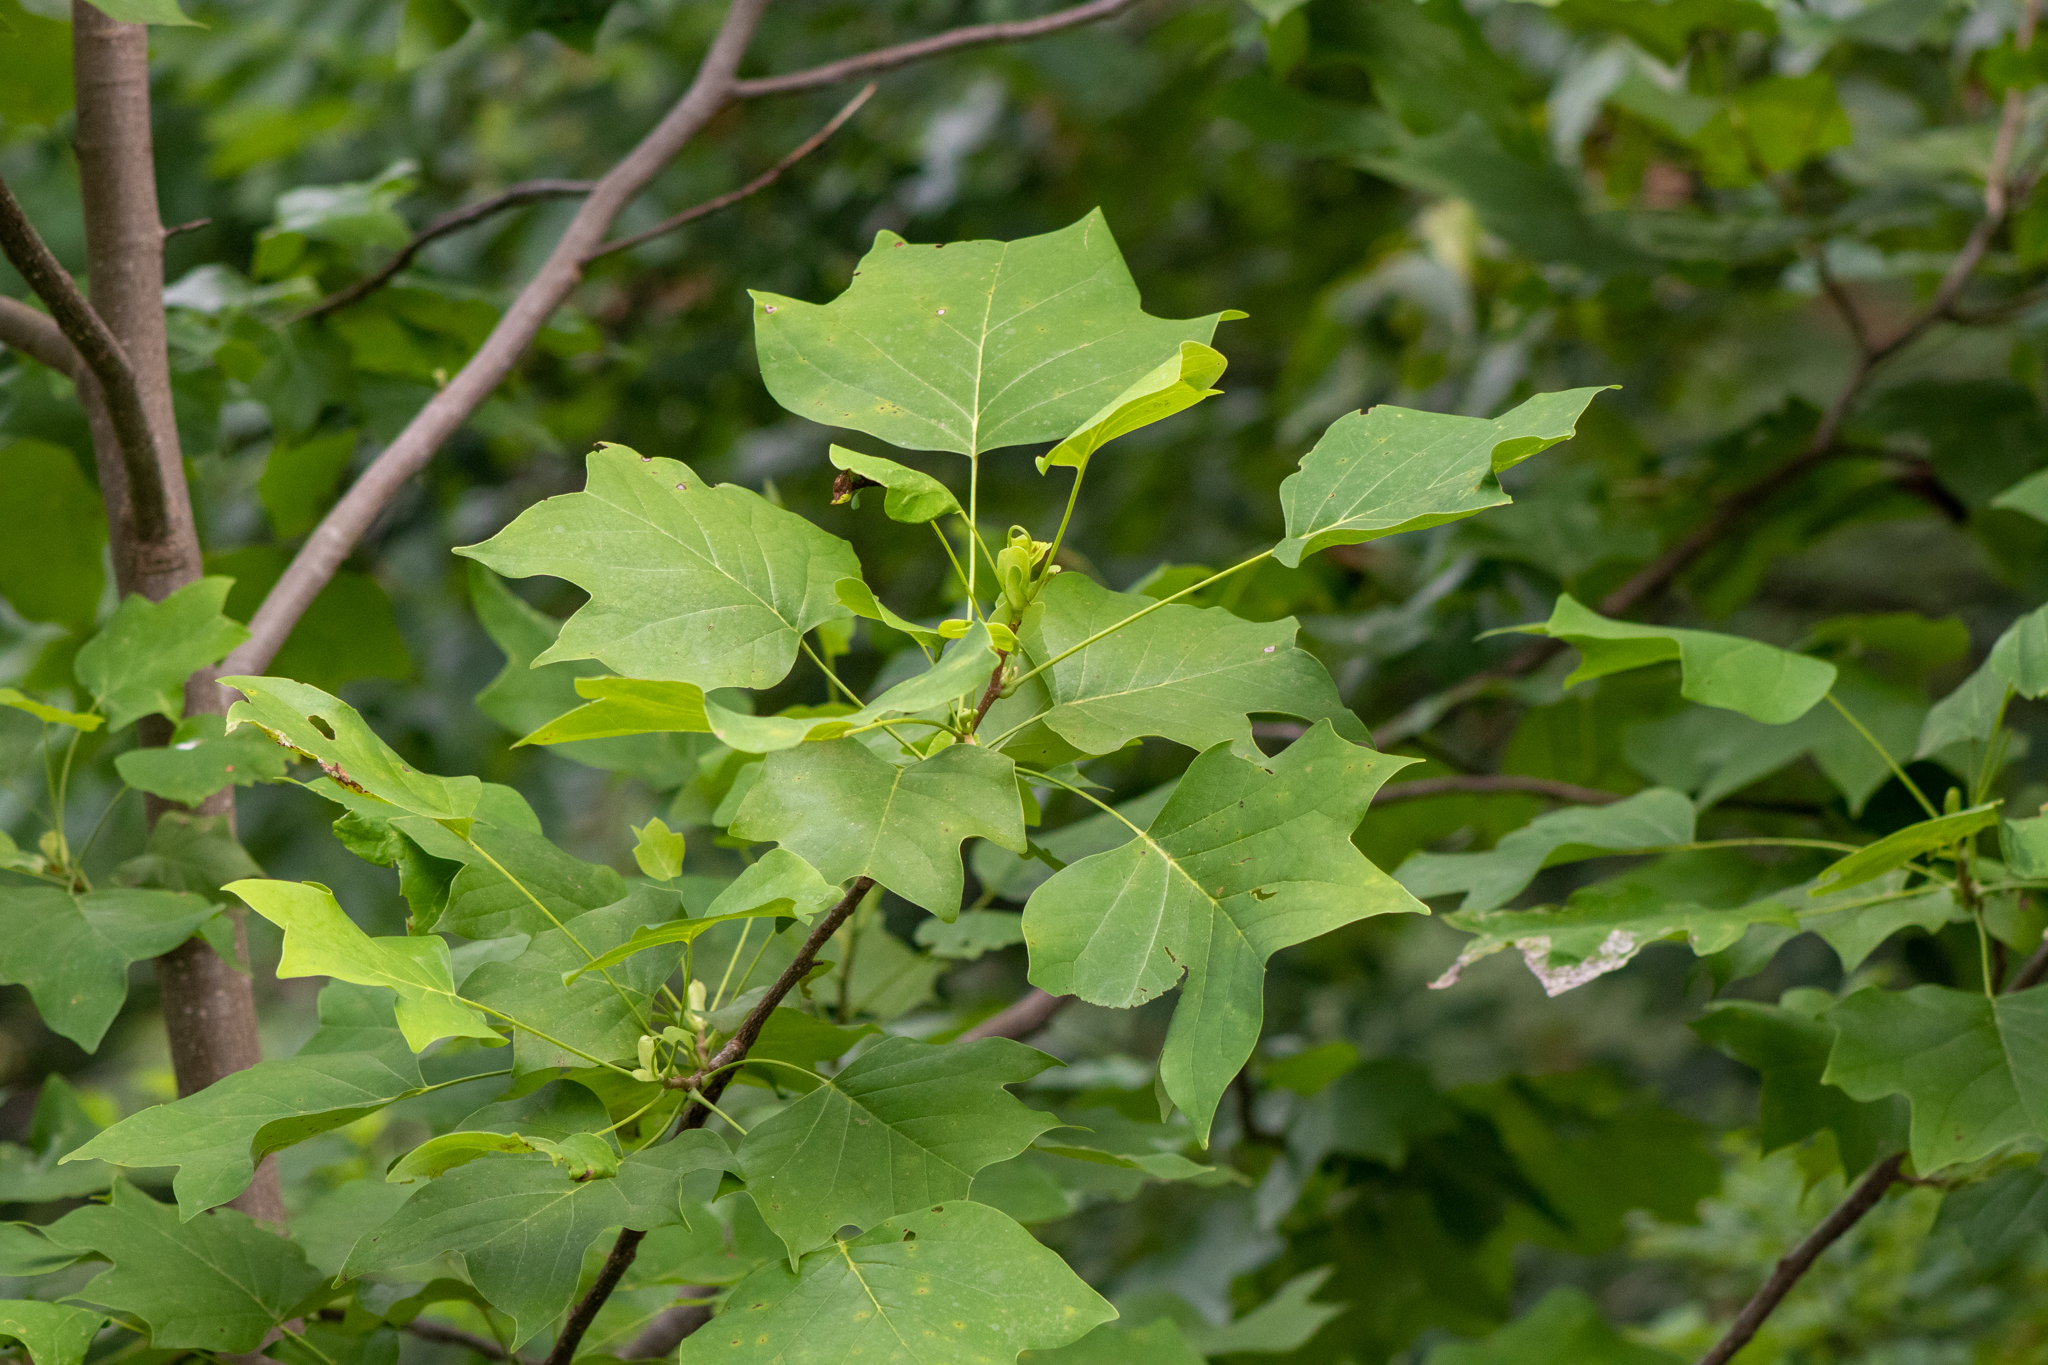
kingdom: Plantae
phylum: Tracheophyta
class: Magnoliopsida
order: Magnoliales
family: Magnoliaceae
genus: Liriodendron
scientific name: Liriodendron tulipifera
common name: Tulip tree
